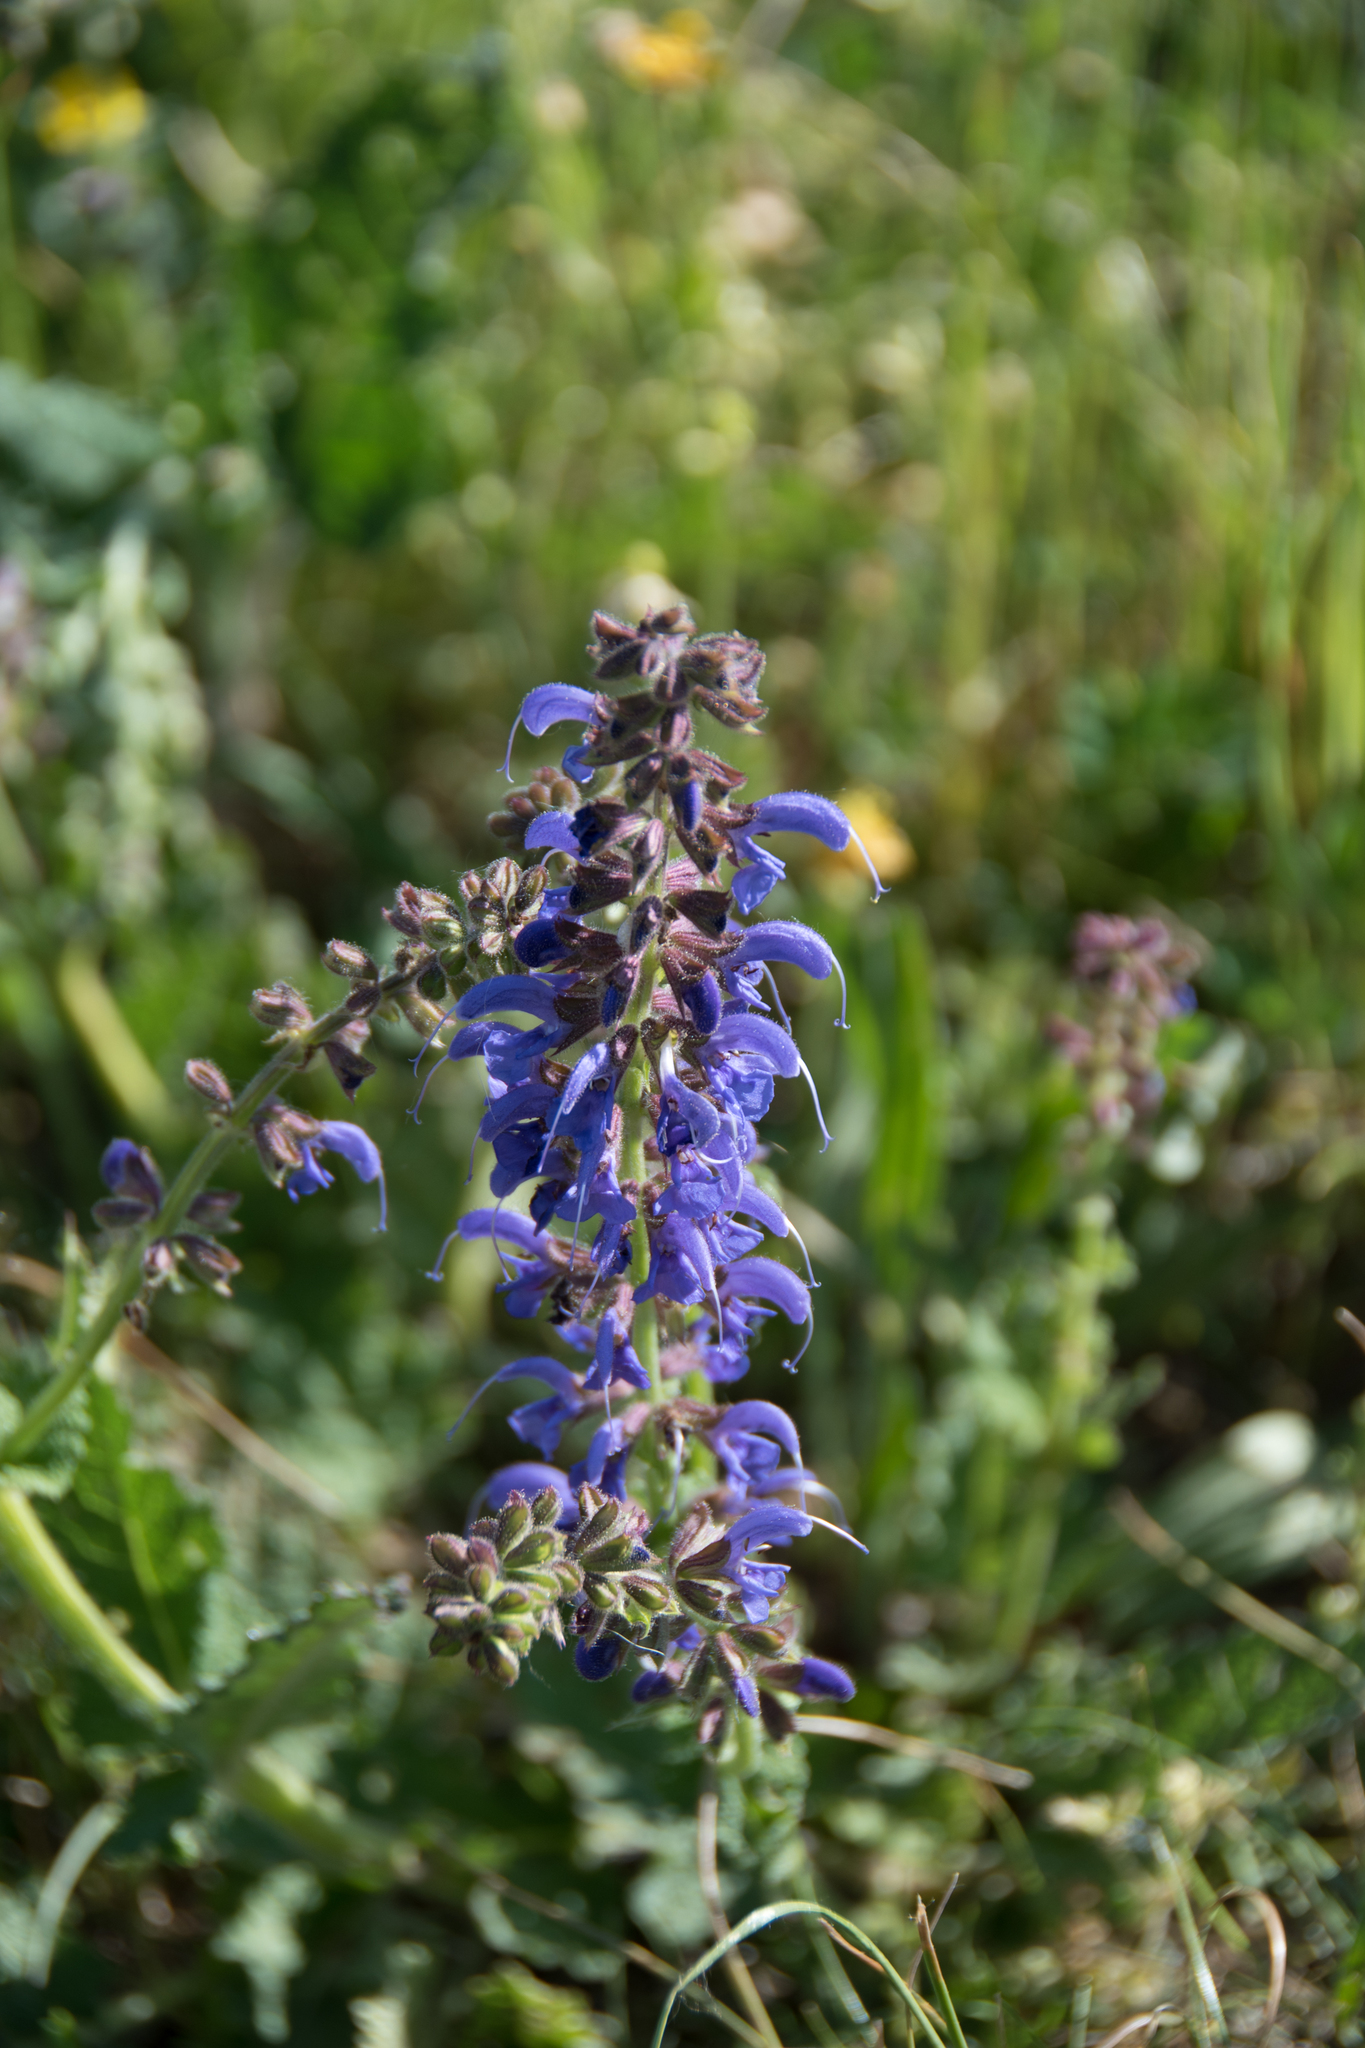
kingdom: Plantae
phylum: Tracheophyta
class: Magnoliopsida
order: Lamiales
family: Lamiaceae
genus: Salvia
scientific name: Salvia pratensis
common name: Meadow sage
